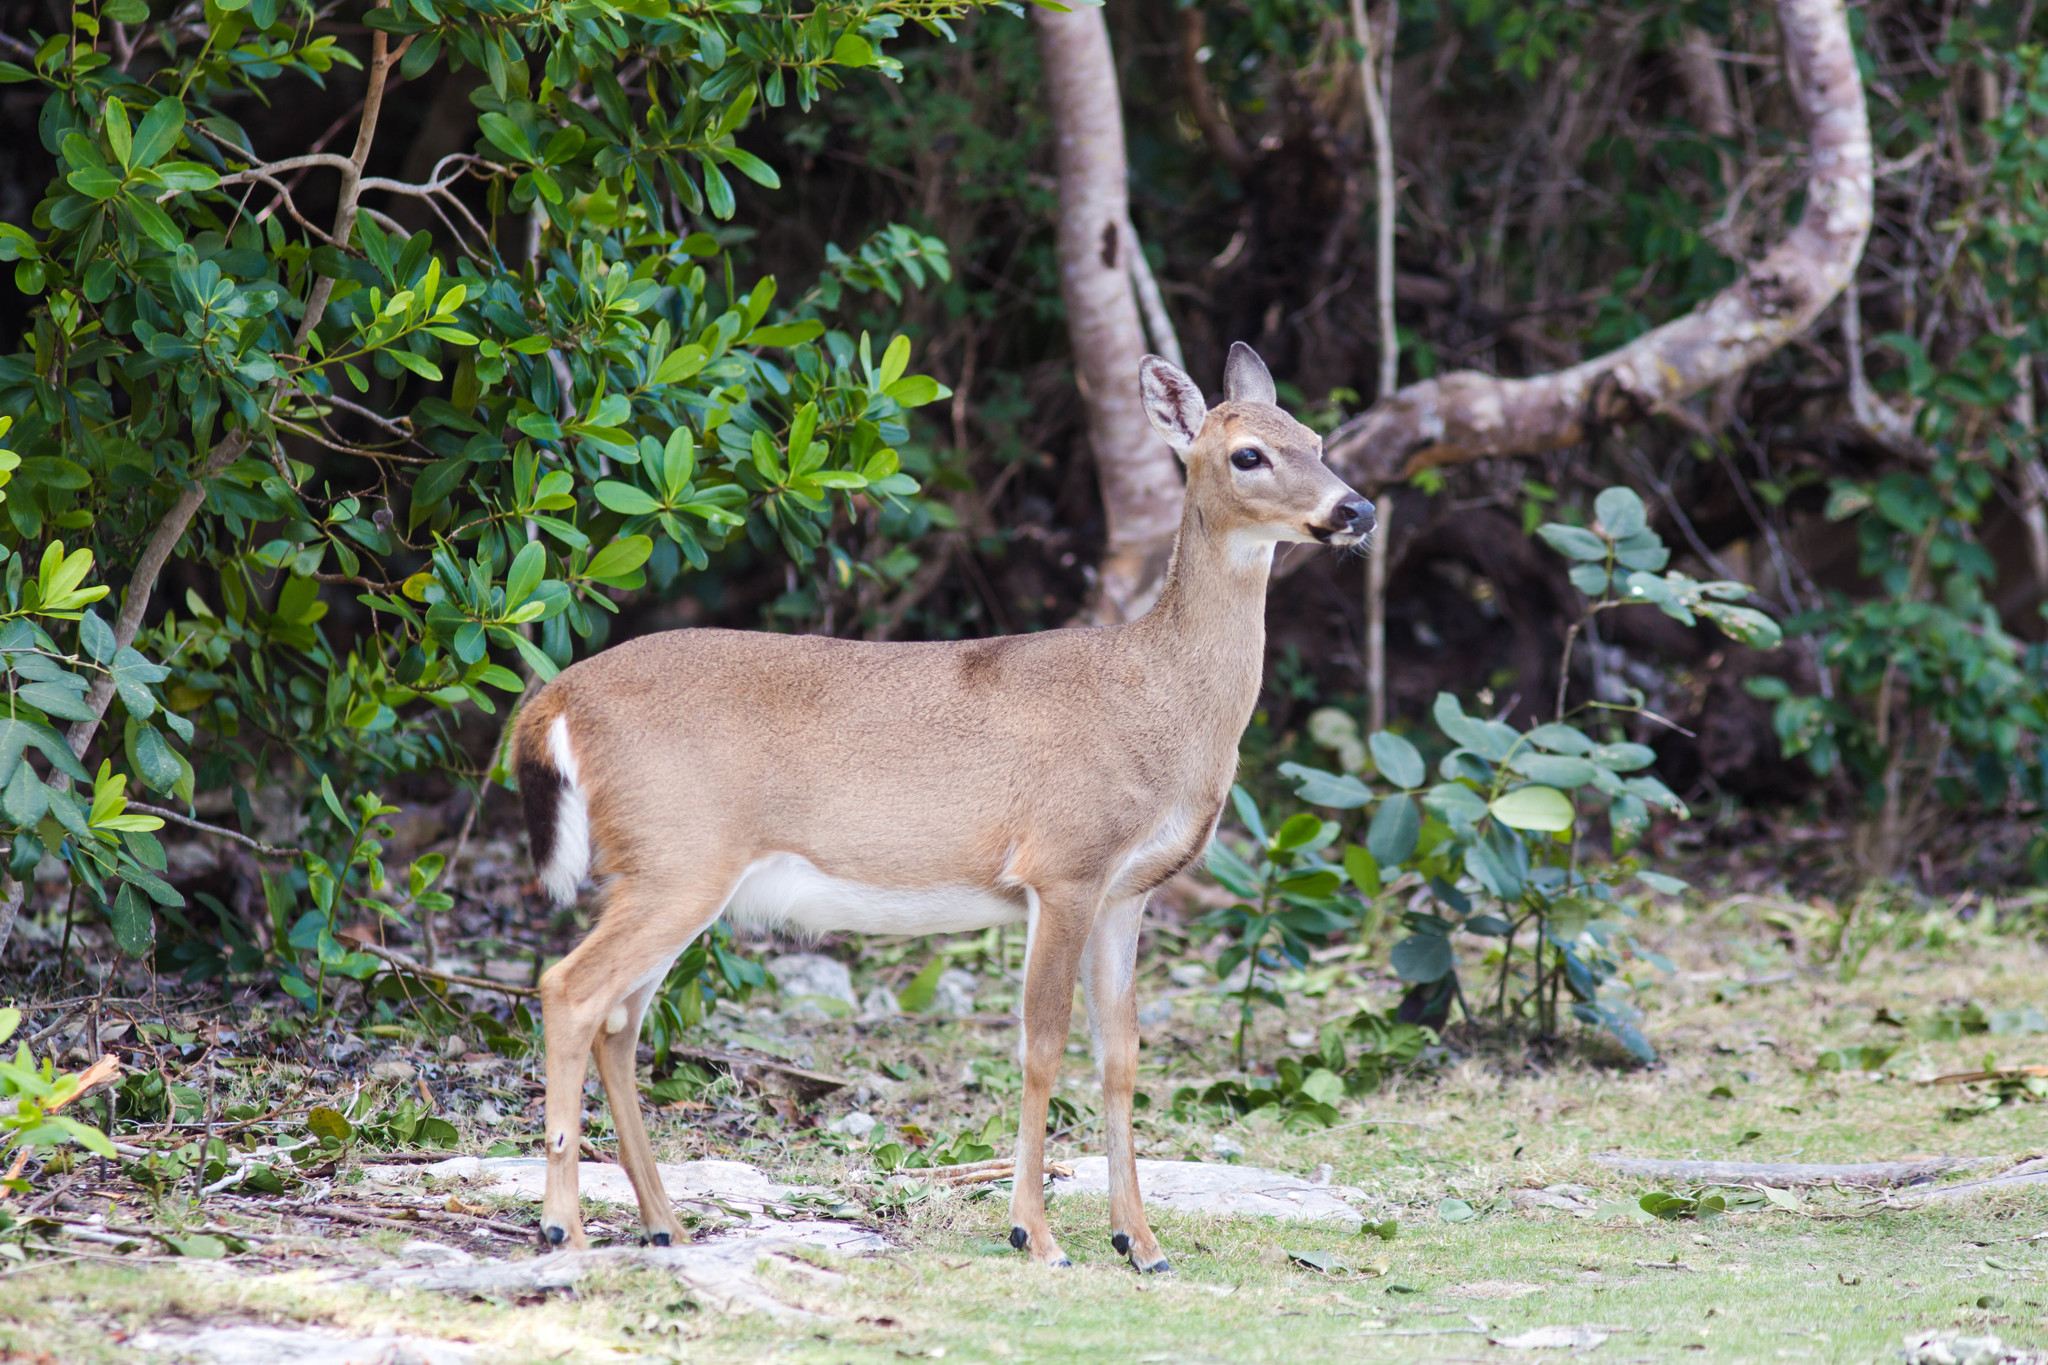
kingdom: Animalia
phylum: Chordata
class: Mammalia
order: Artiodactyla
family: Cervidae
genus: Odocoileus
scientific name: Odocoileus virginianus
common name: White-tailed deer
